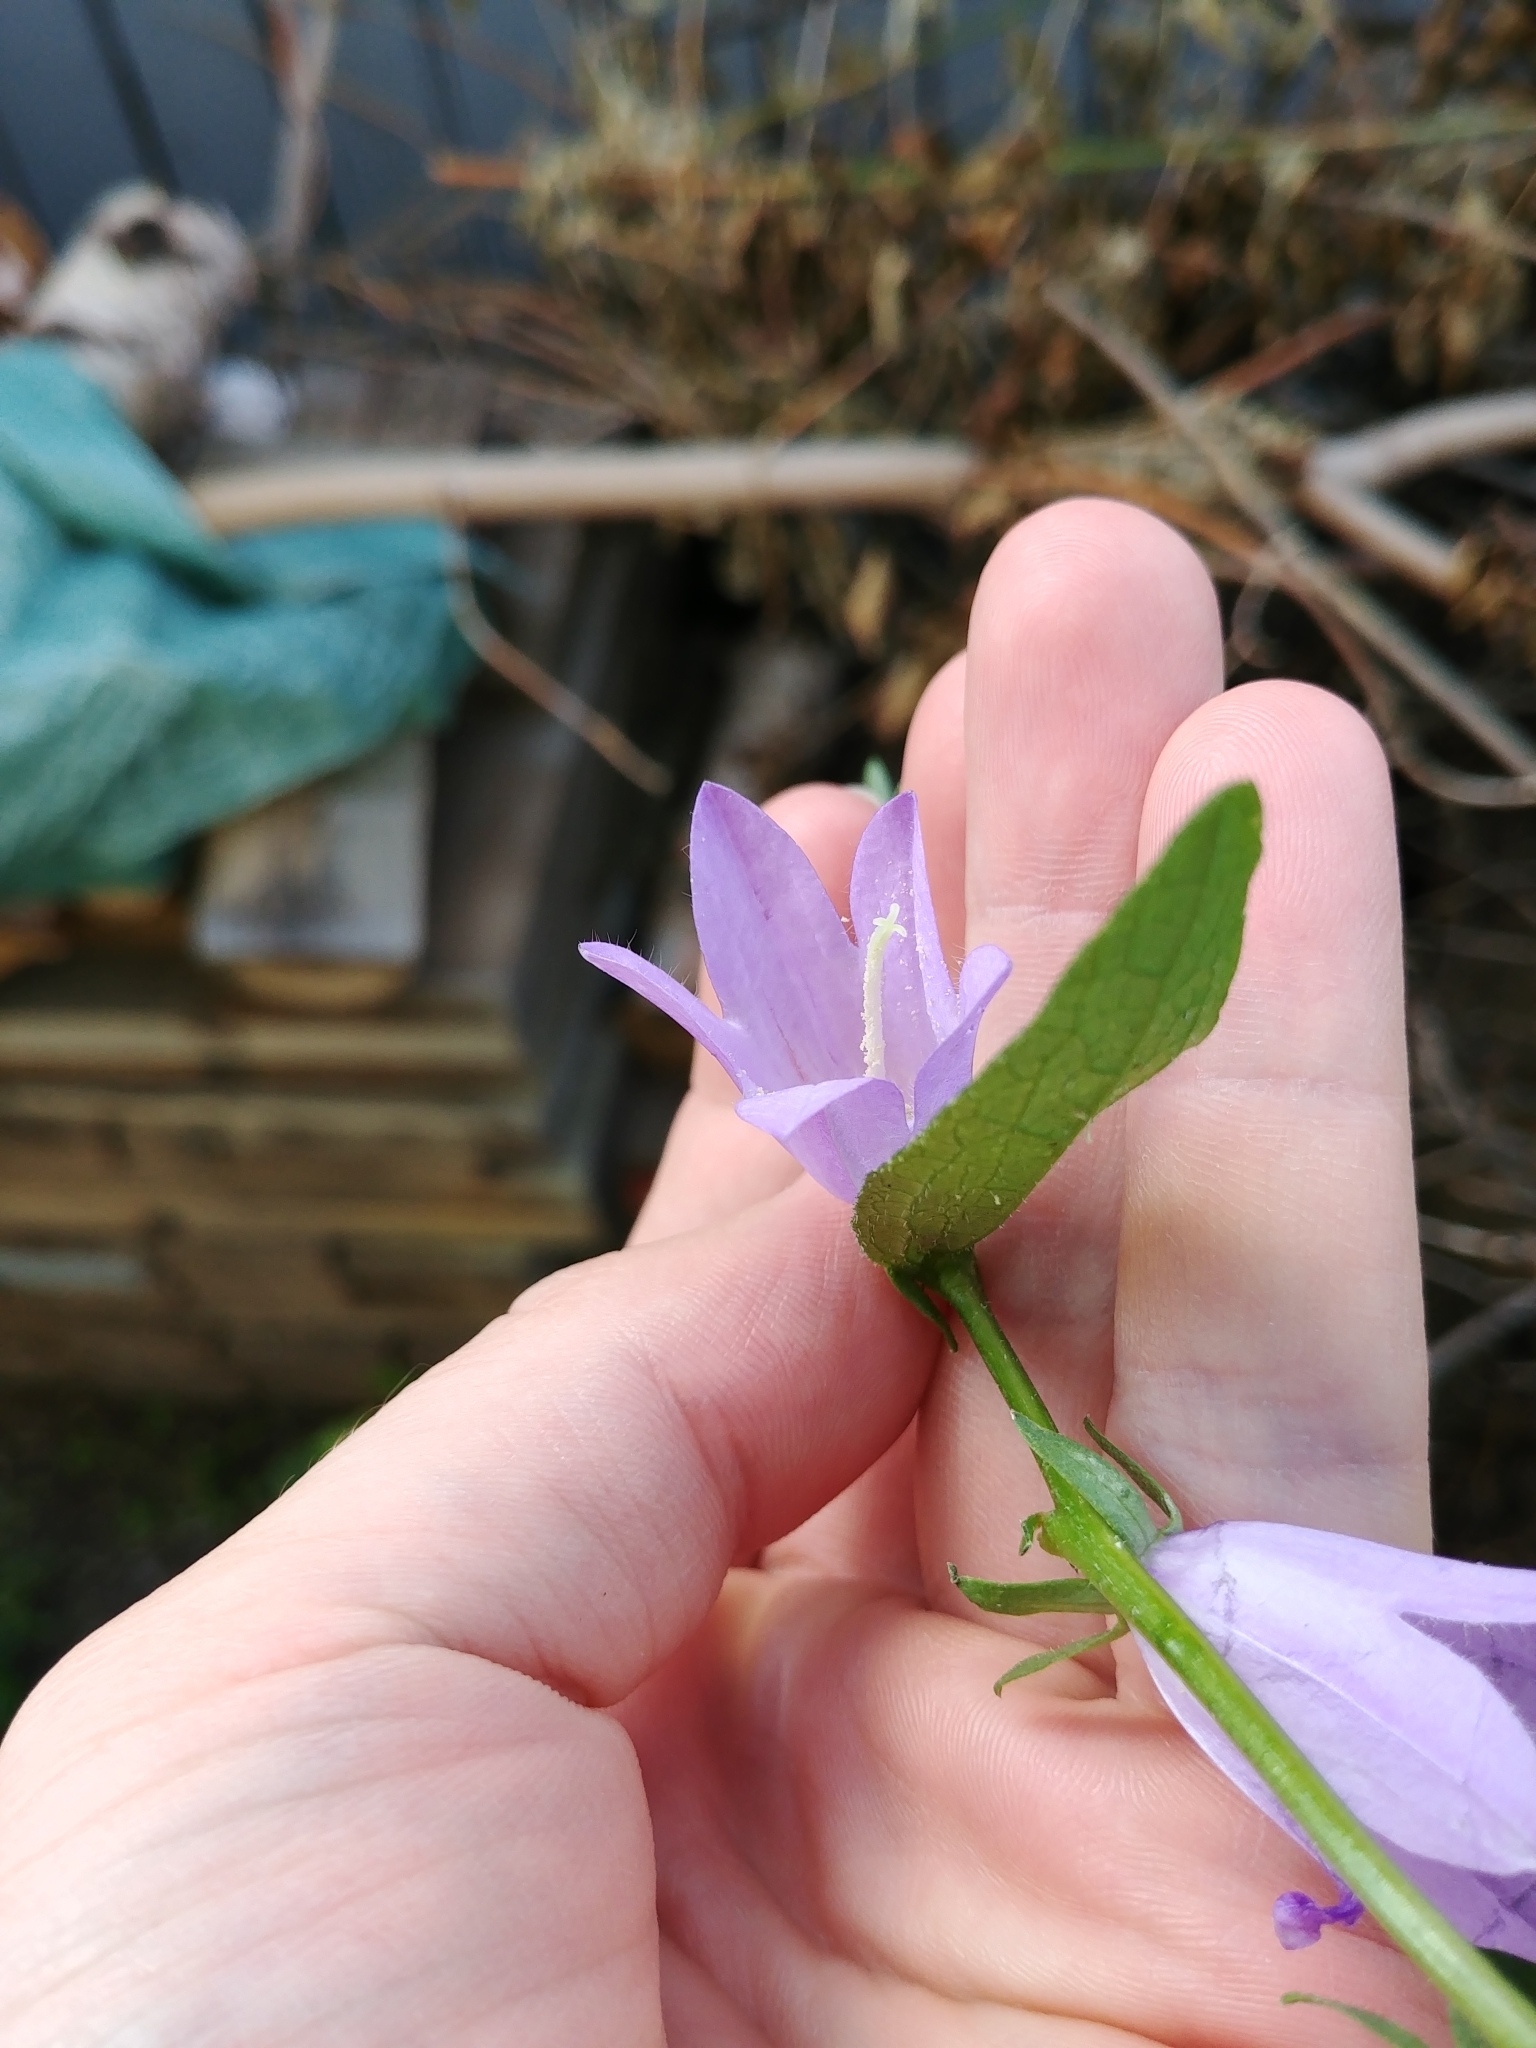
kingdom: Plantae
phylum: Tracheophyta
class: Magnoliopsida
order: Asterales
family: Campanulaceae
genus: Campanula
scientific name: Campanula rapunculoides
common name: Creeping bellflower
